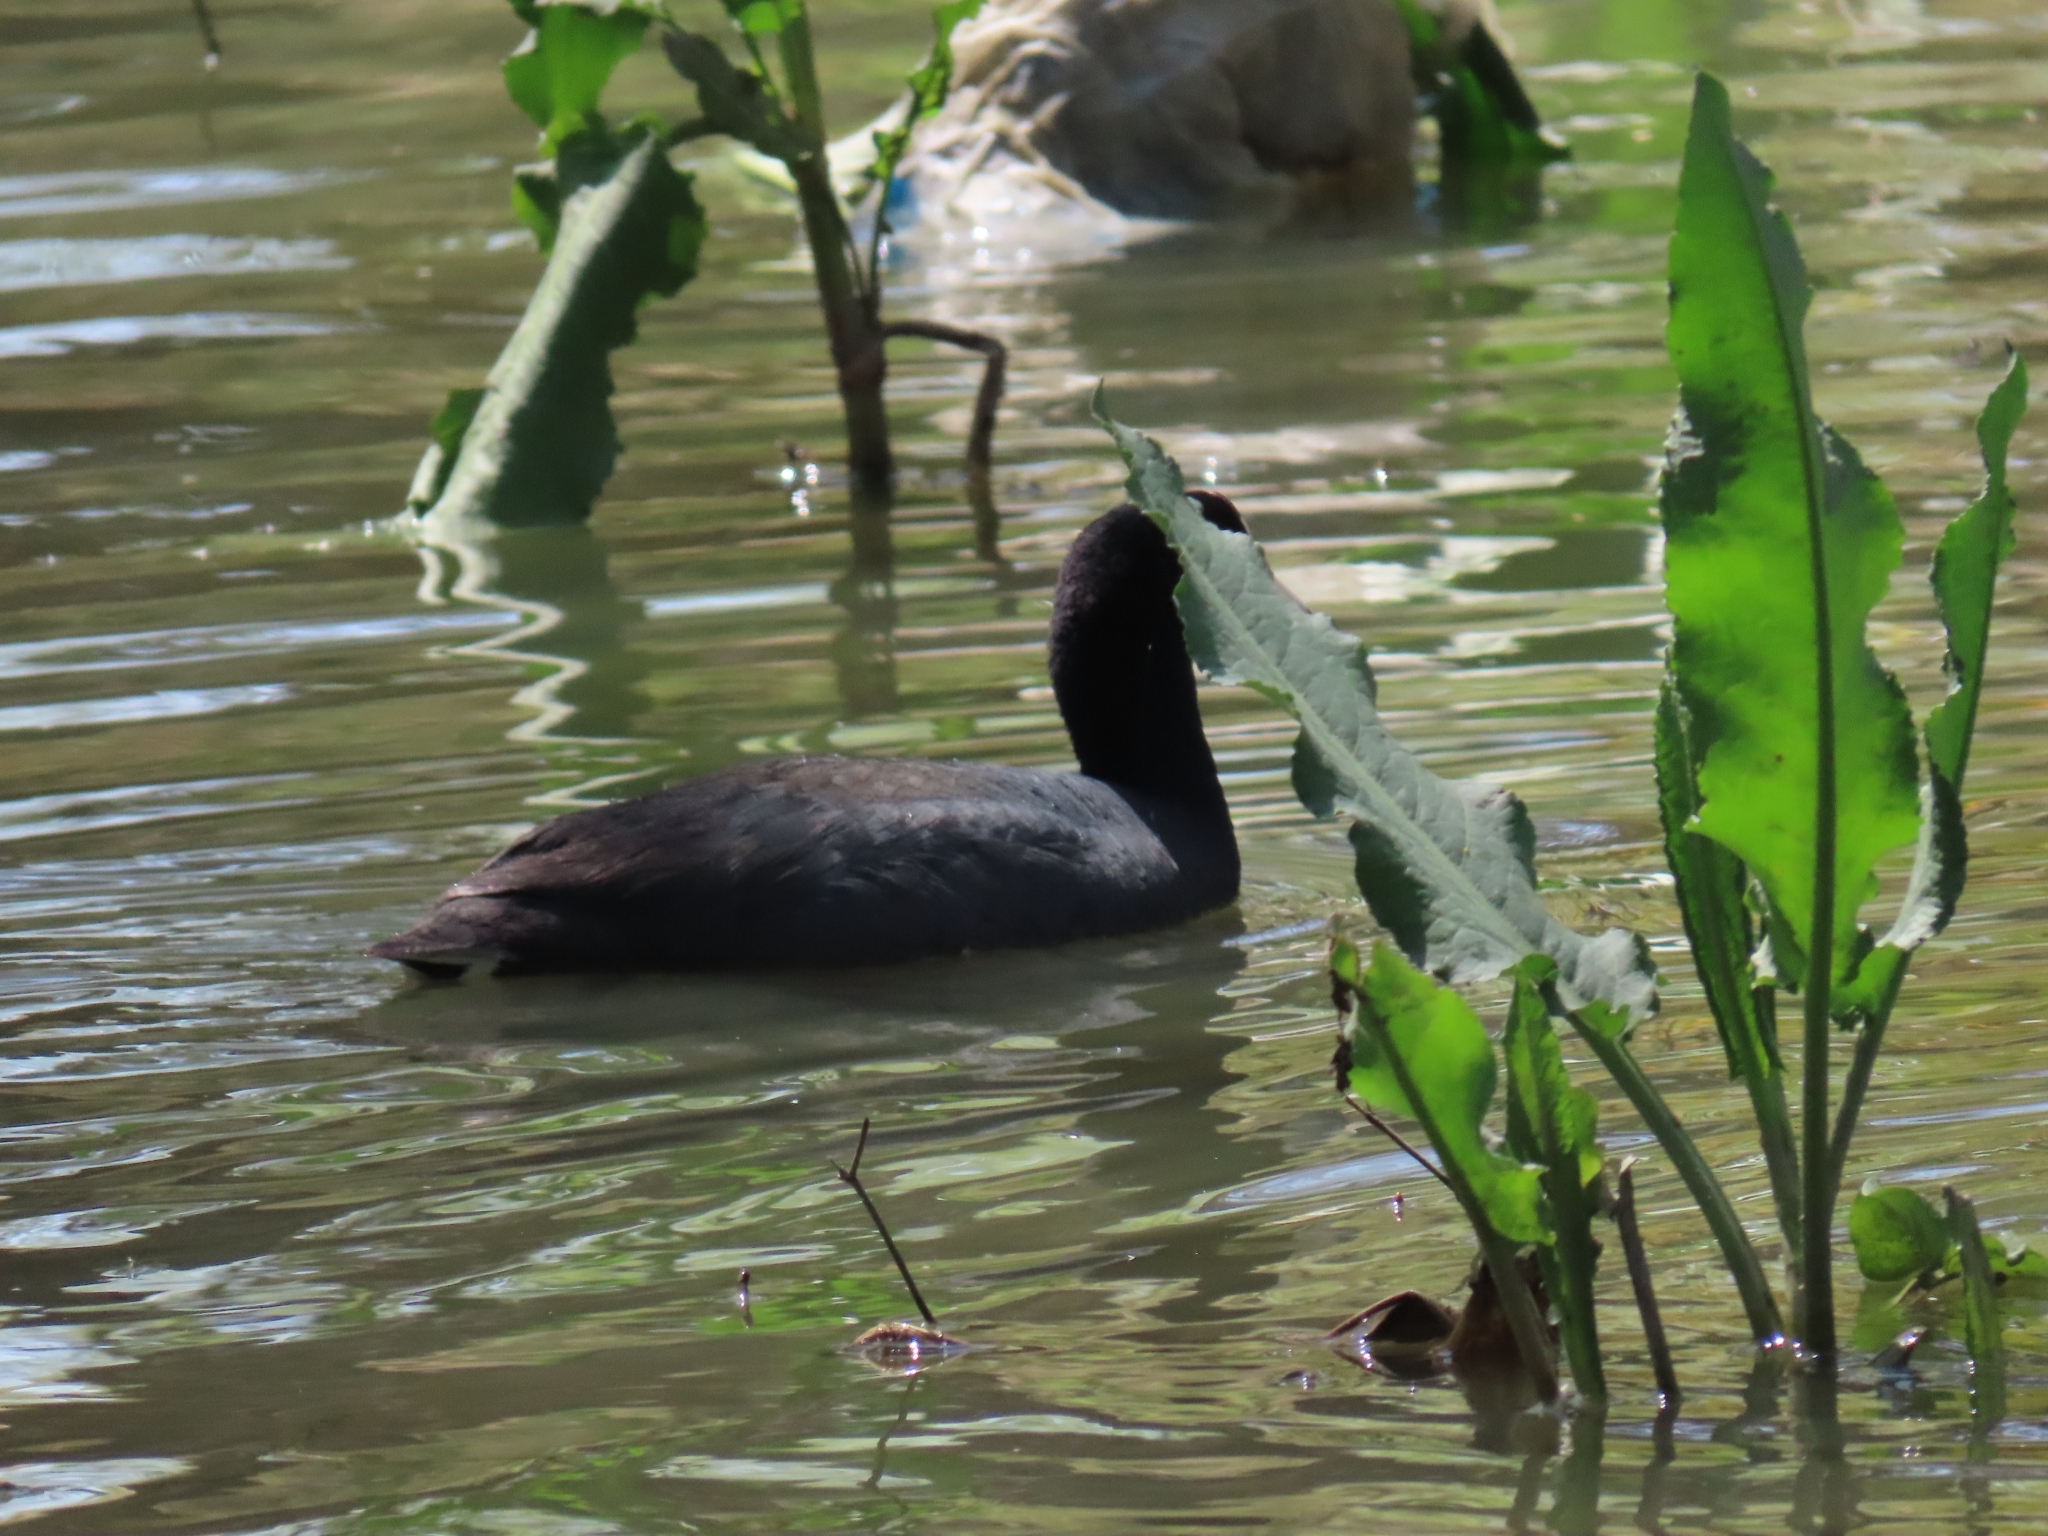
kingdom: Animalia
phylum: Chordata
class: Aves
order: Gruiformes
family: Rallidae
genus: Fulica
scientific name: Fulica americana
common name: American coot
